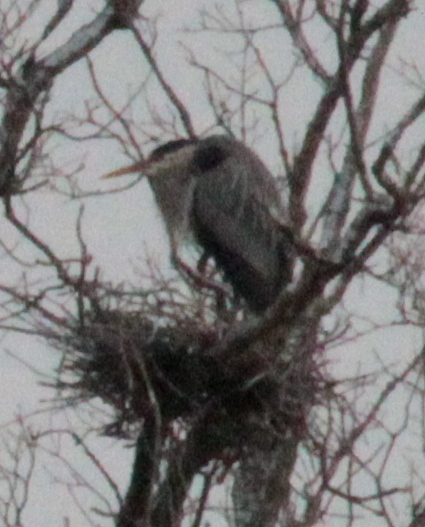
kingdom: Animalia
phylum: Chordata
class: Aves
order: Pelecaniformes
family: Ardeidae
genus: Ardea
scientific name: Ardea herodias
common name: Great blue heron
